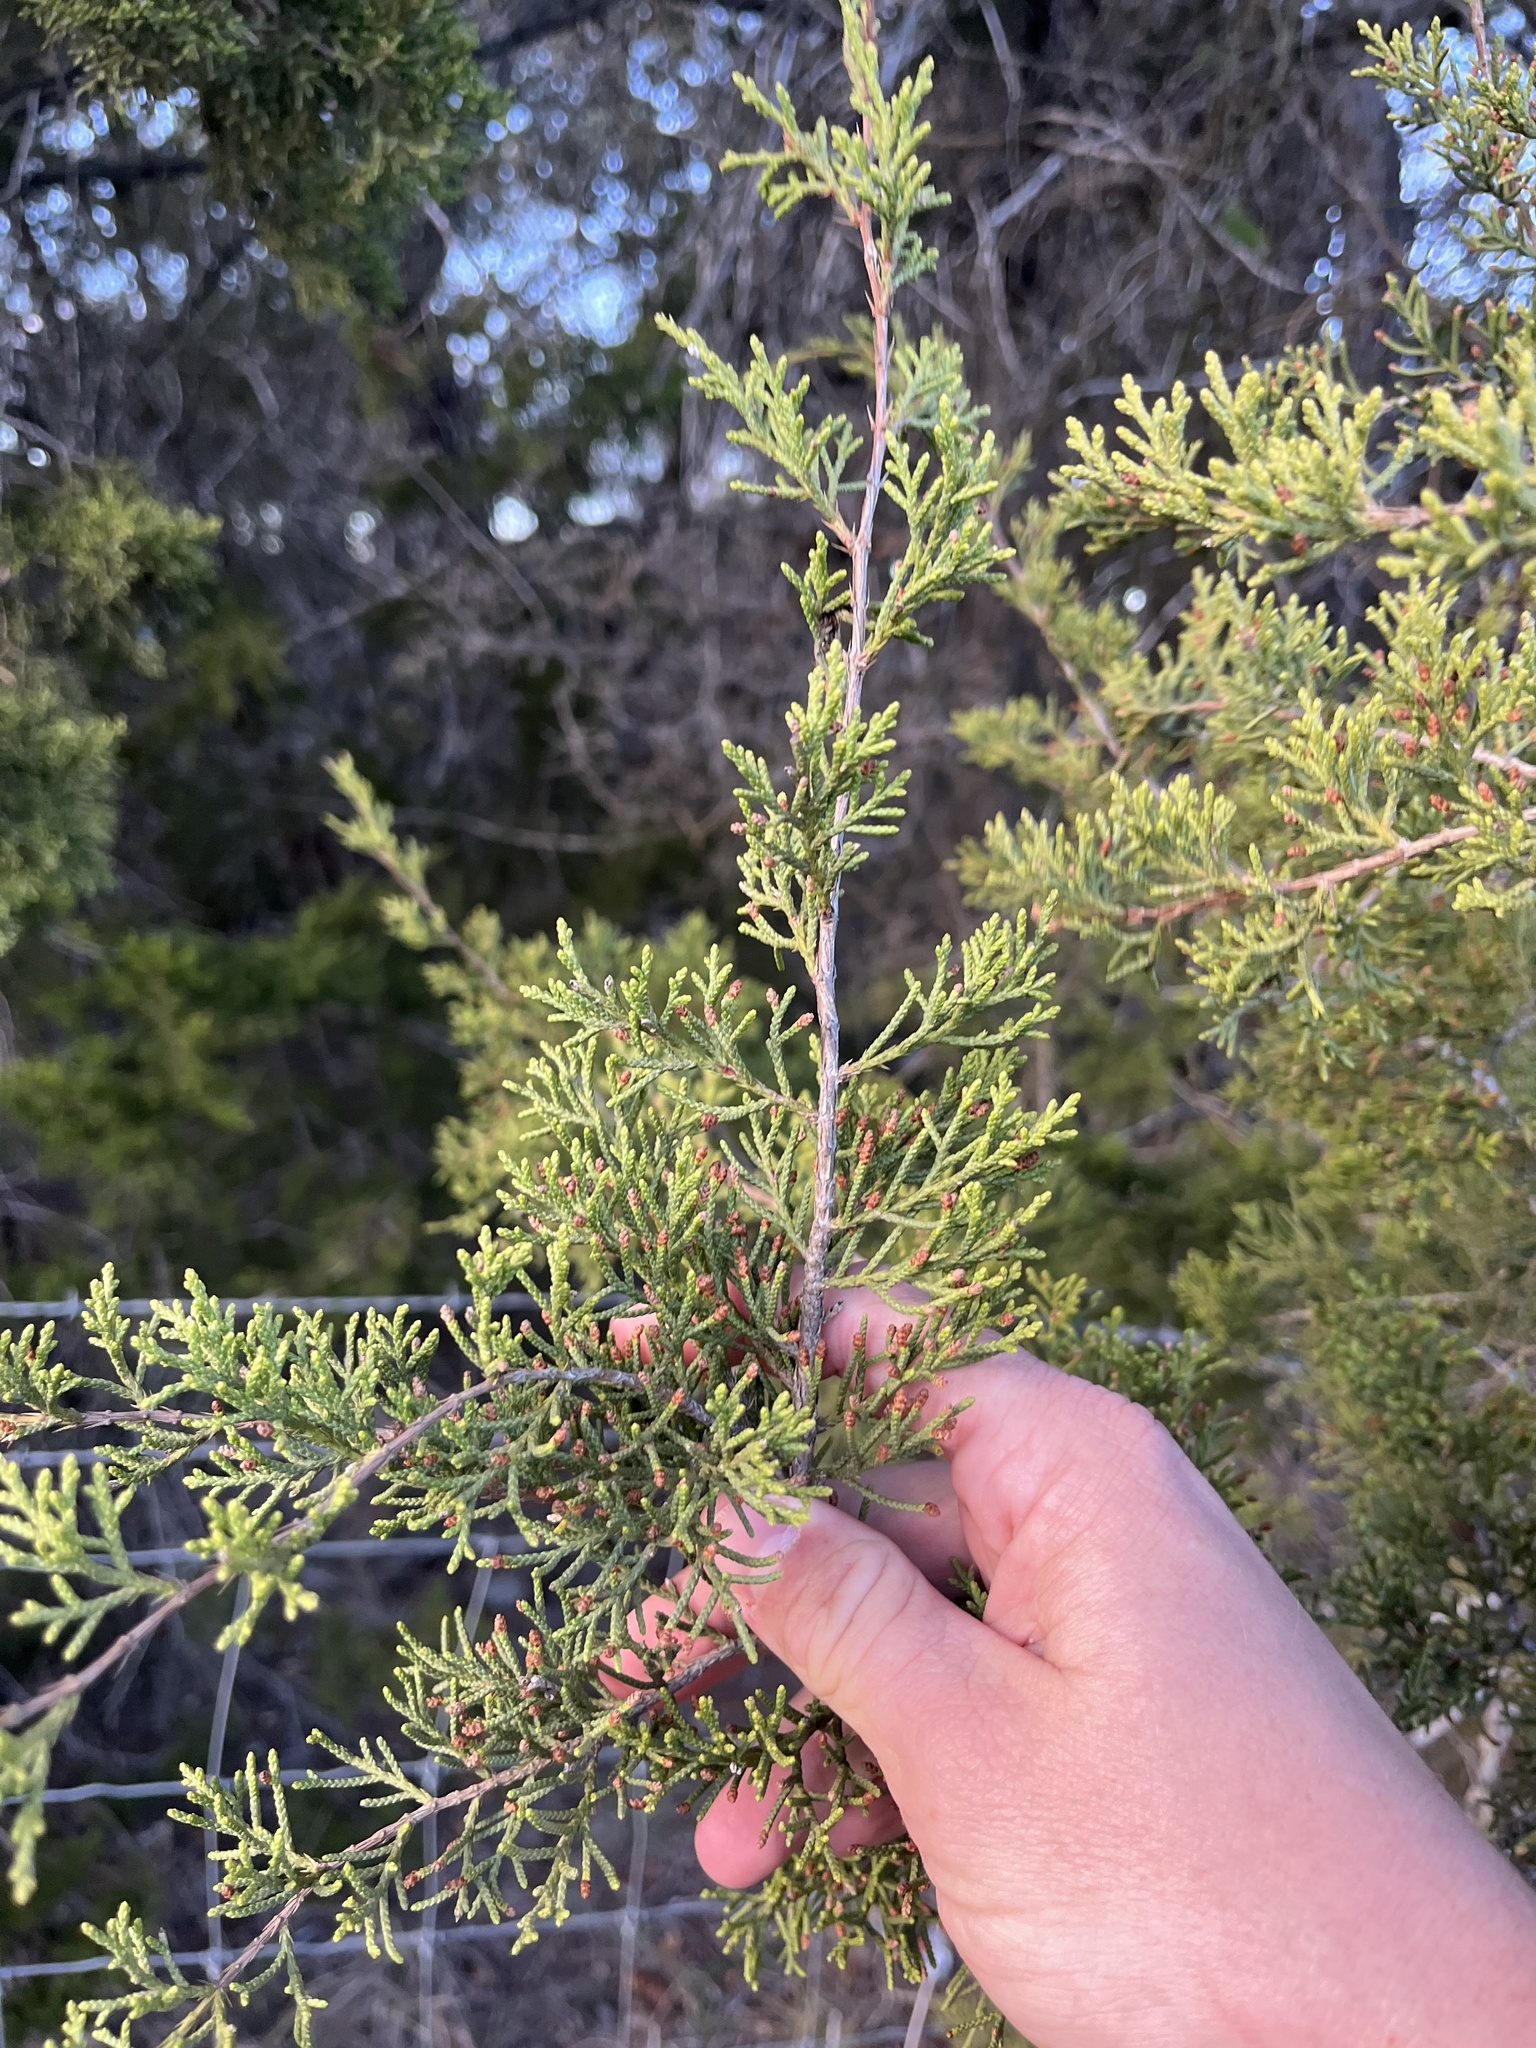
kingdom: Plantae
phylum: Tracheophyta
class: Pinopsida
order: Pinales
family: Cupressaceae
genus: Juniperus
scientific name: Juniperus ashei
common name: Mexican juniper
